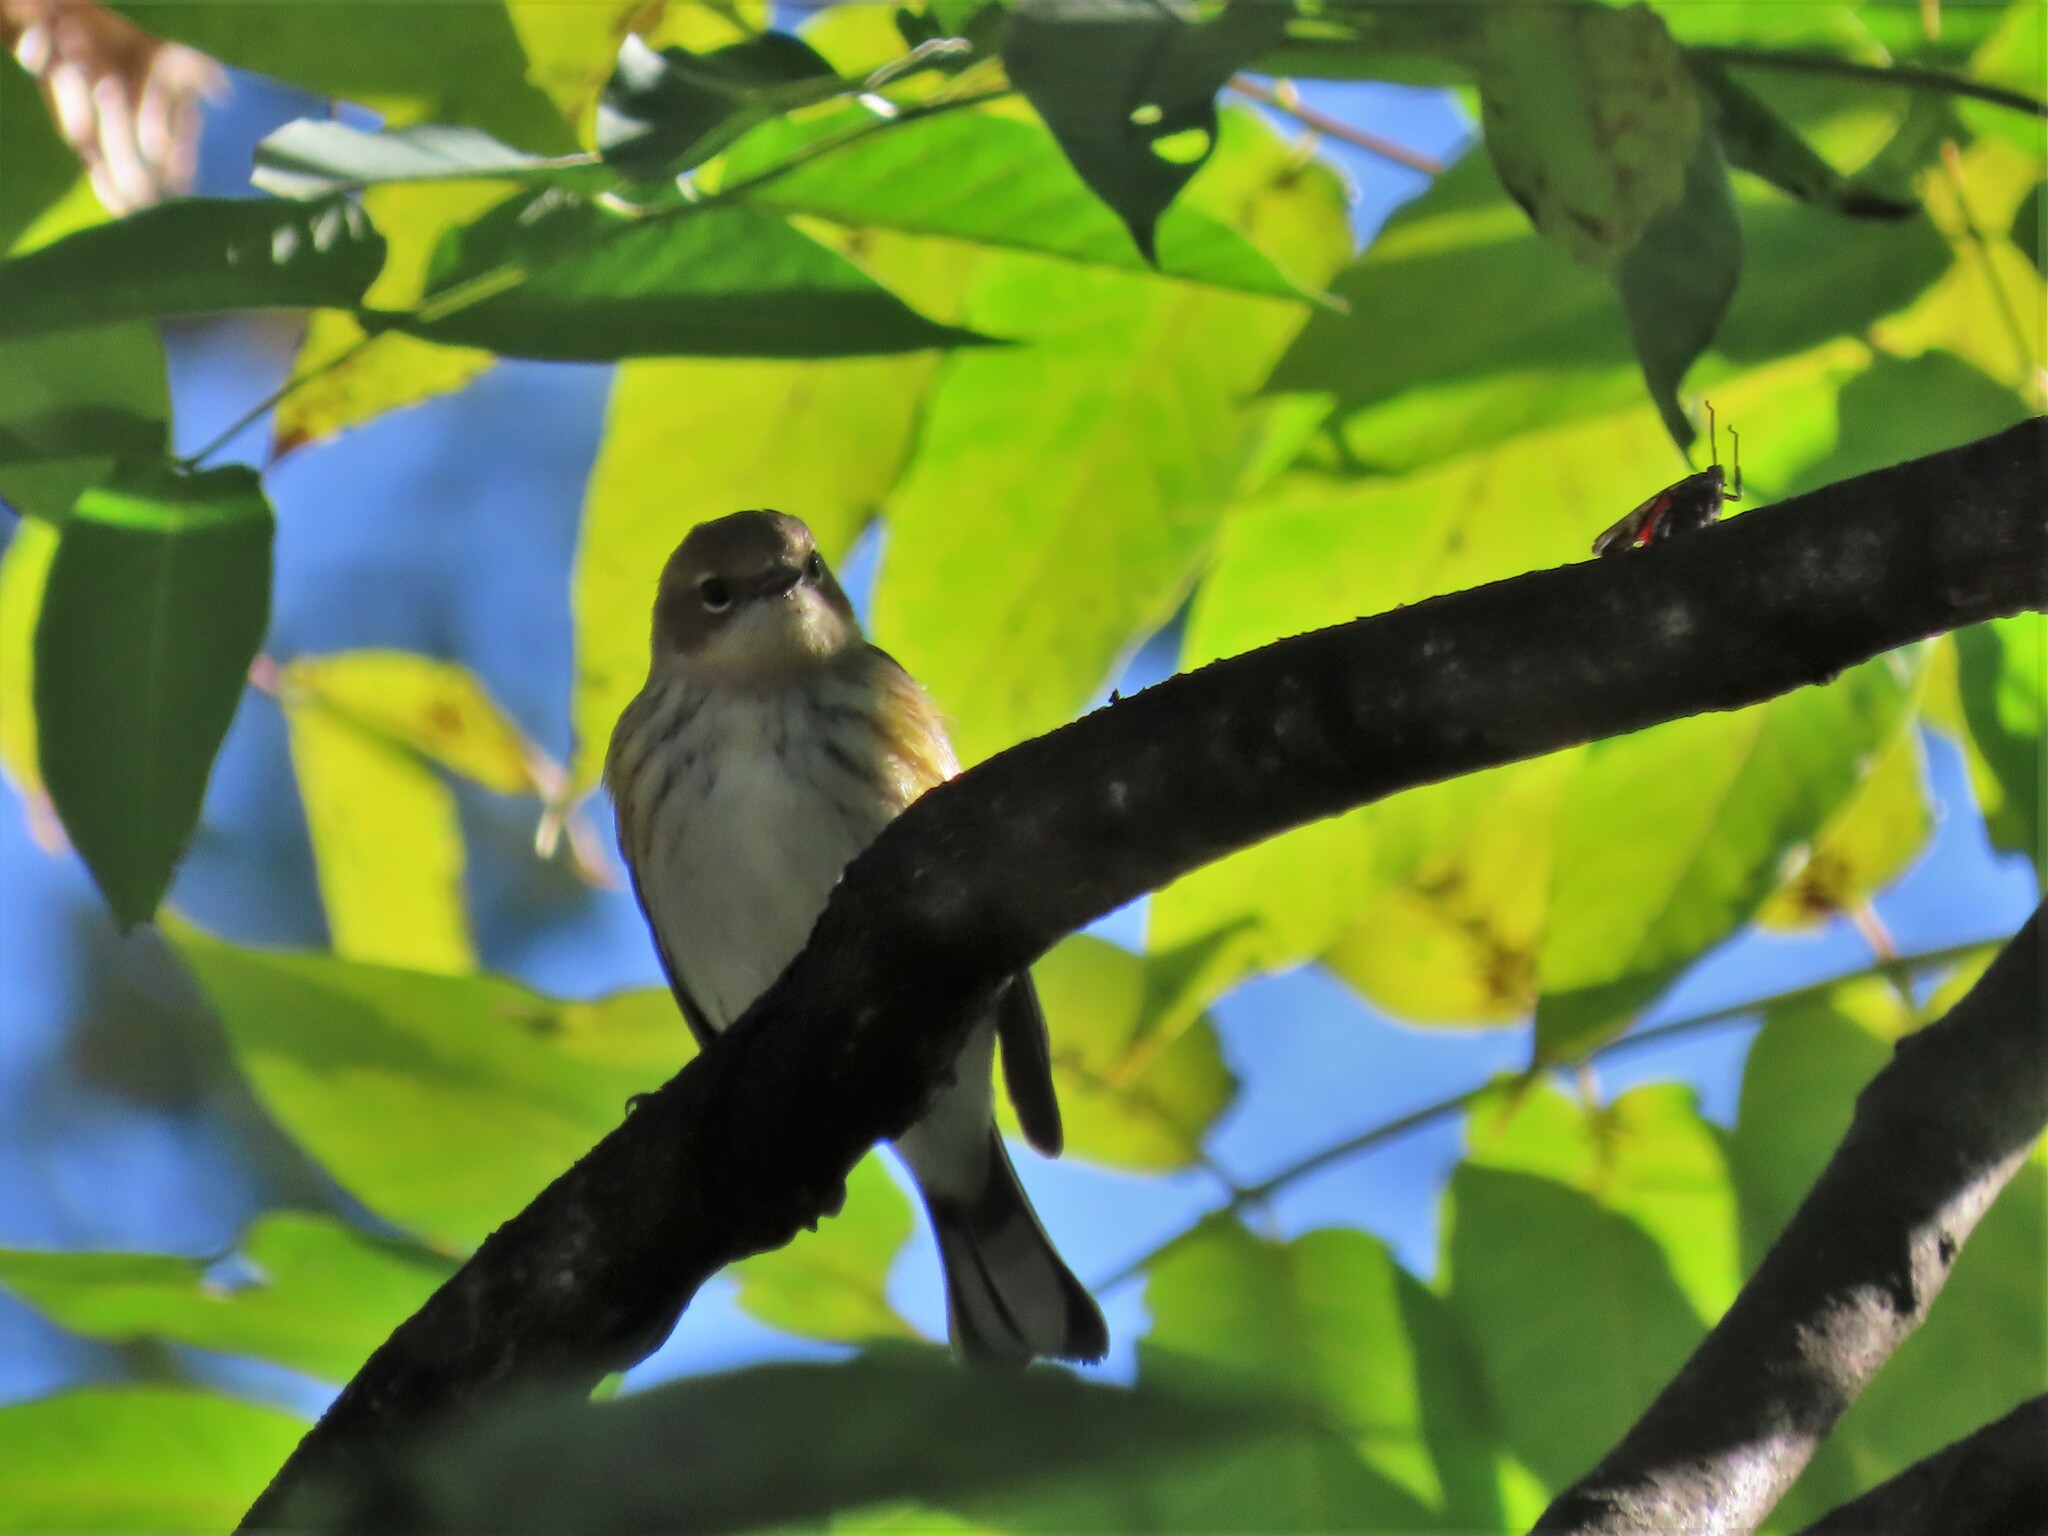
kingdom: Animalia
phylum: Chordata
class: Aves
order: Passeriformes
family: Parulidae
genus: Setophaga
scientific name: Setophaga coronata
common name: Myrtle warbler
